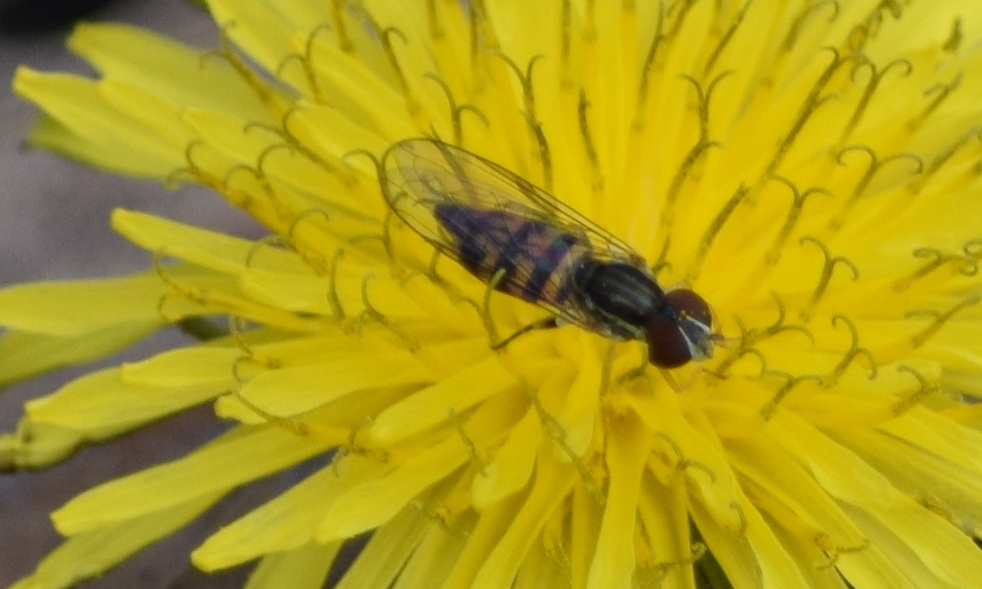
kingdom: Animalia
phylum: Arthropoda
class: Insecta
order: Diptera
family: Syrphidae
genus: Toxomerus
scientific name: Toxomerus geminatus
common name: Eastern calligrapher
